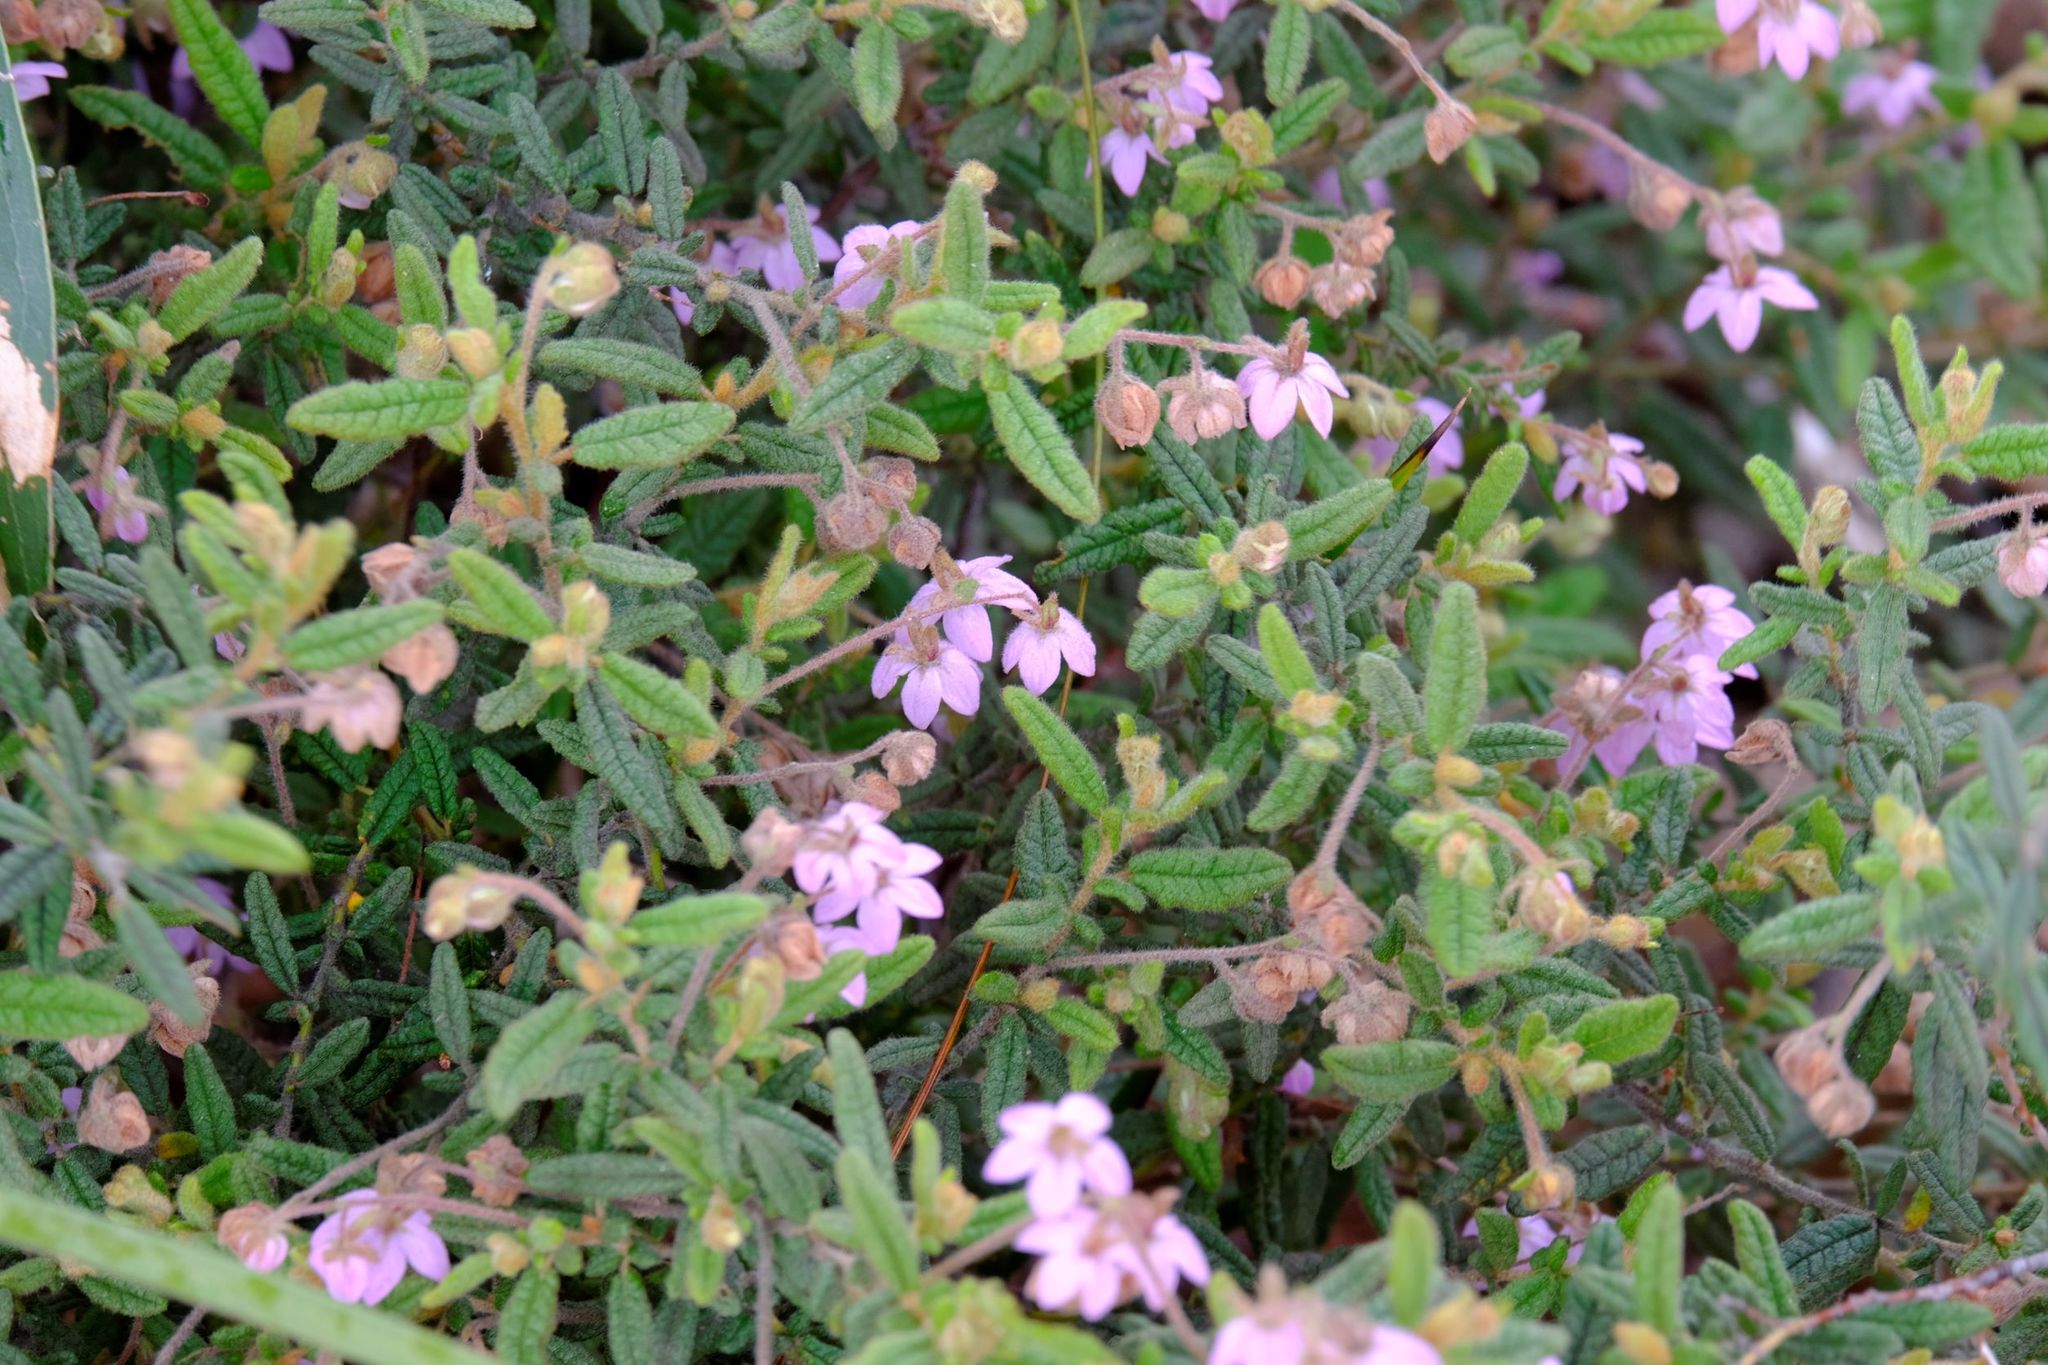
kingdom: Plantae
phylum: Tracheophyta
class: Magnoliopsida
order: Malvales
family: Malvaceae
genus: Thomasia
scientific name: Thomasia petalocalyx
